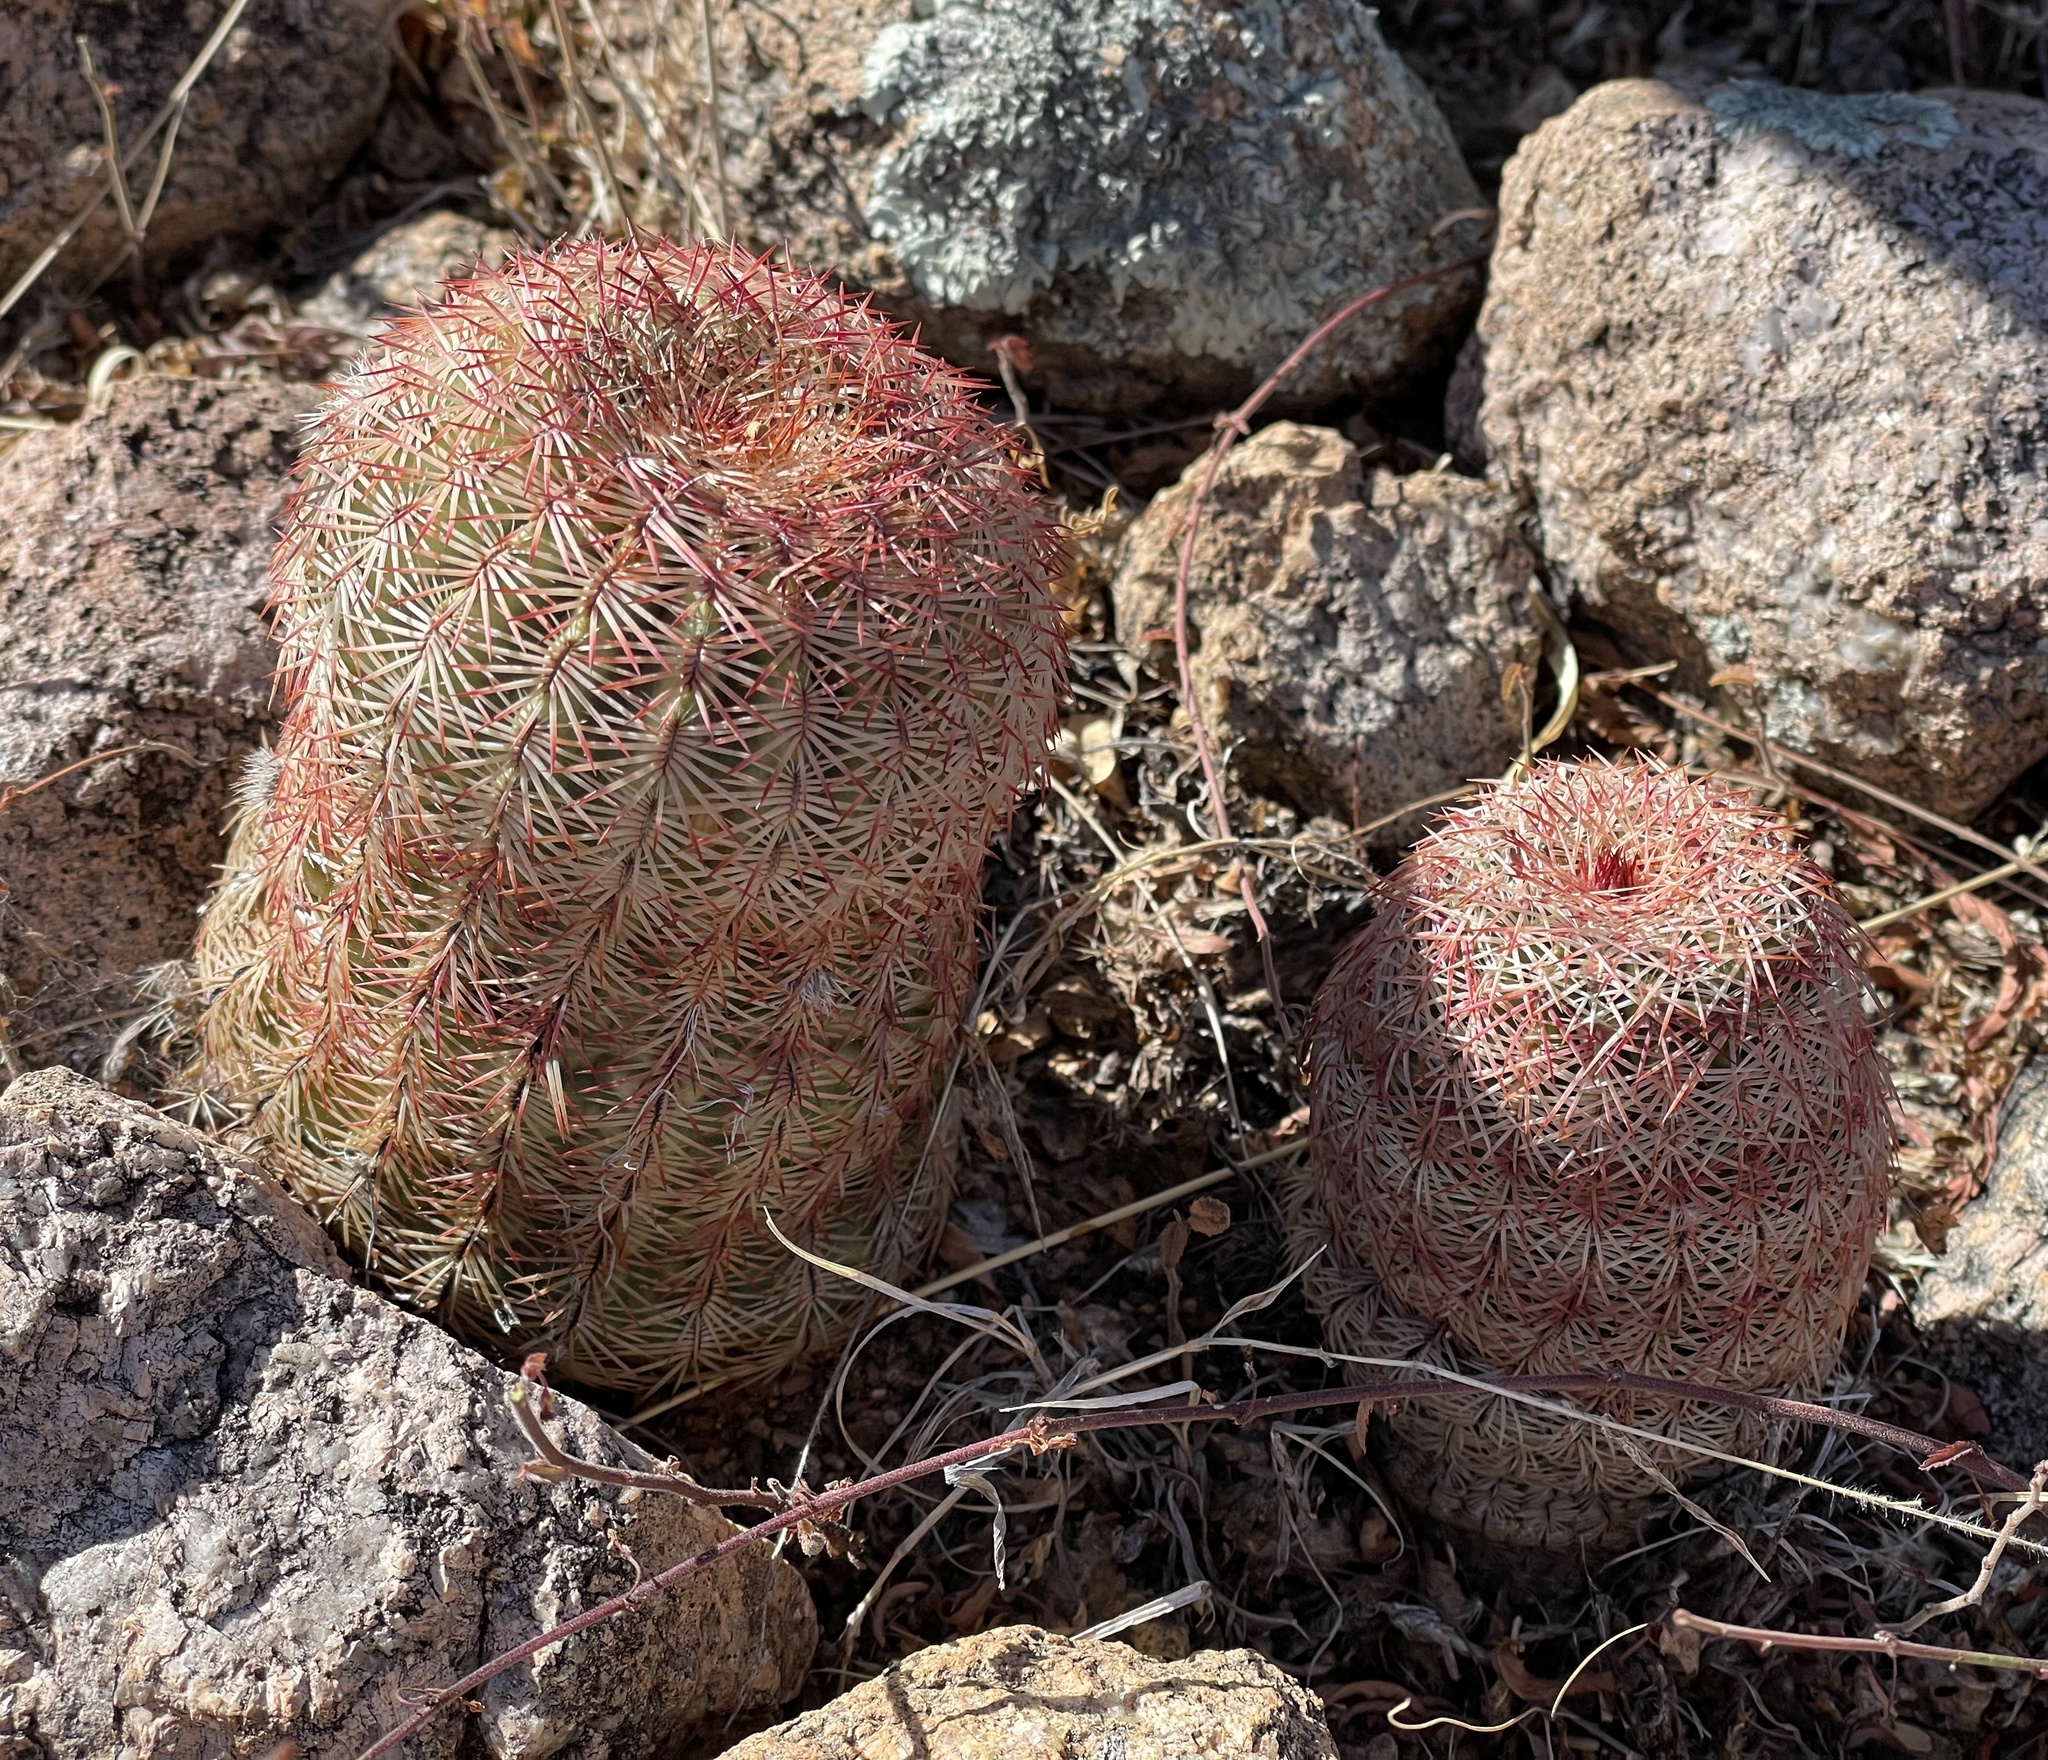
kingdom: Plantae
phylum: Tracheophyta
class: Magnoliopsida
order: Caryophyllales
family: Cactaceae
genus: Echinocereus
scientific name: Echinocereus rigidissimus
